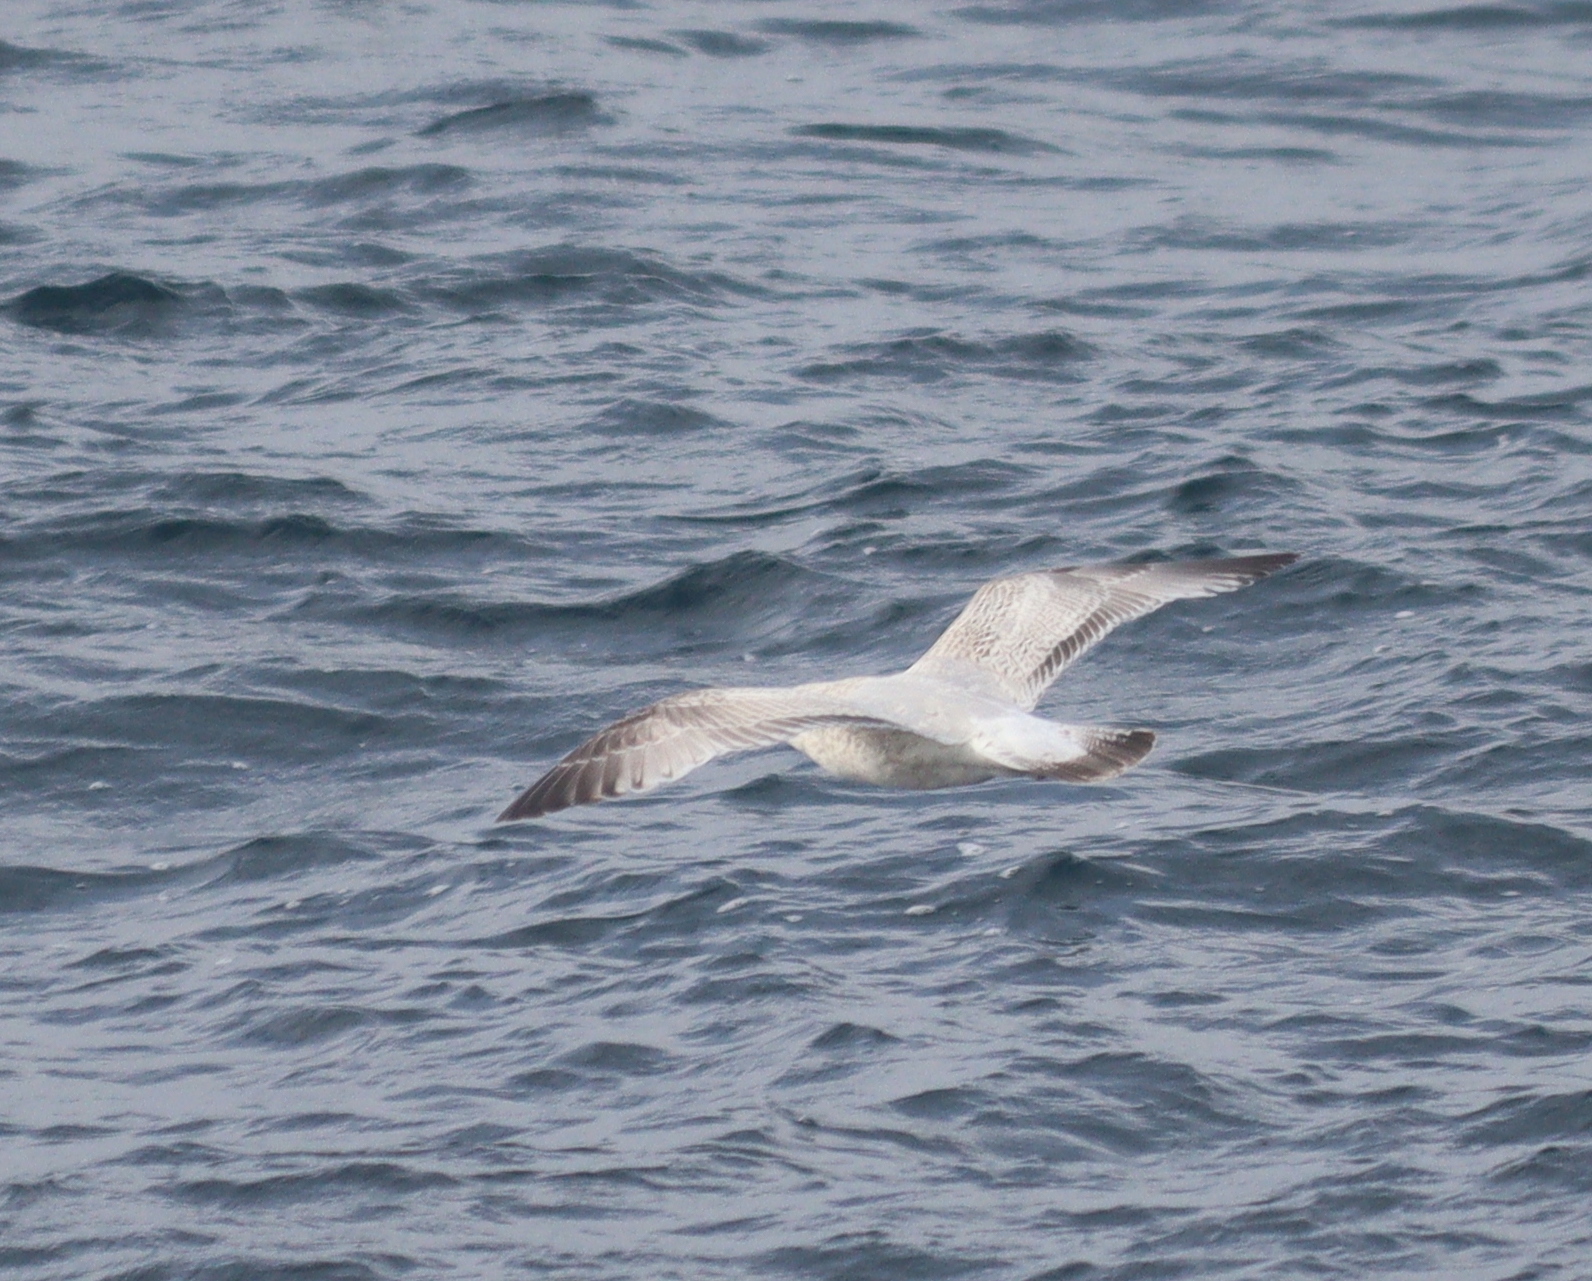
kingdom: Animalia
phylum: Chordata
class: Aves
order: Charadriiformes
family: Laridae
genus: Larus
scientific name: Larus argentatus
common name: Herring gull
